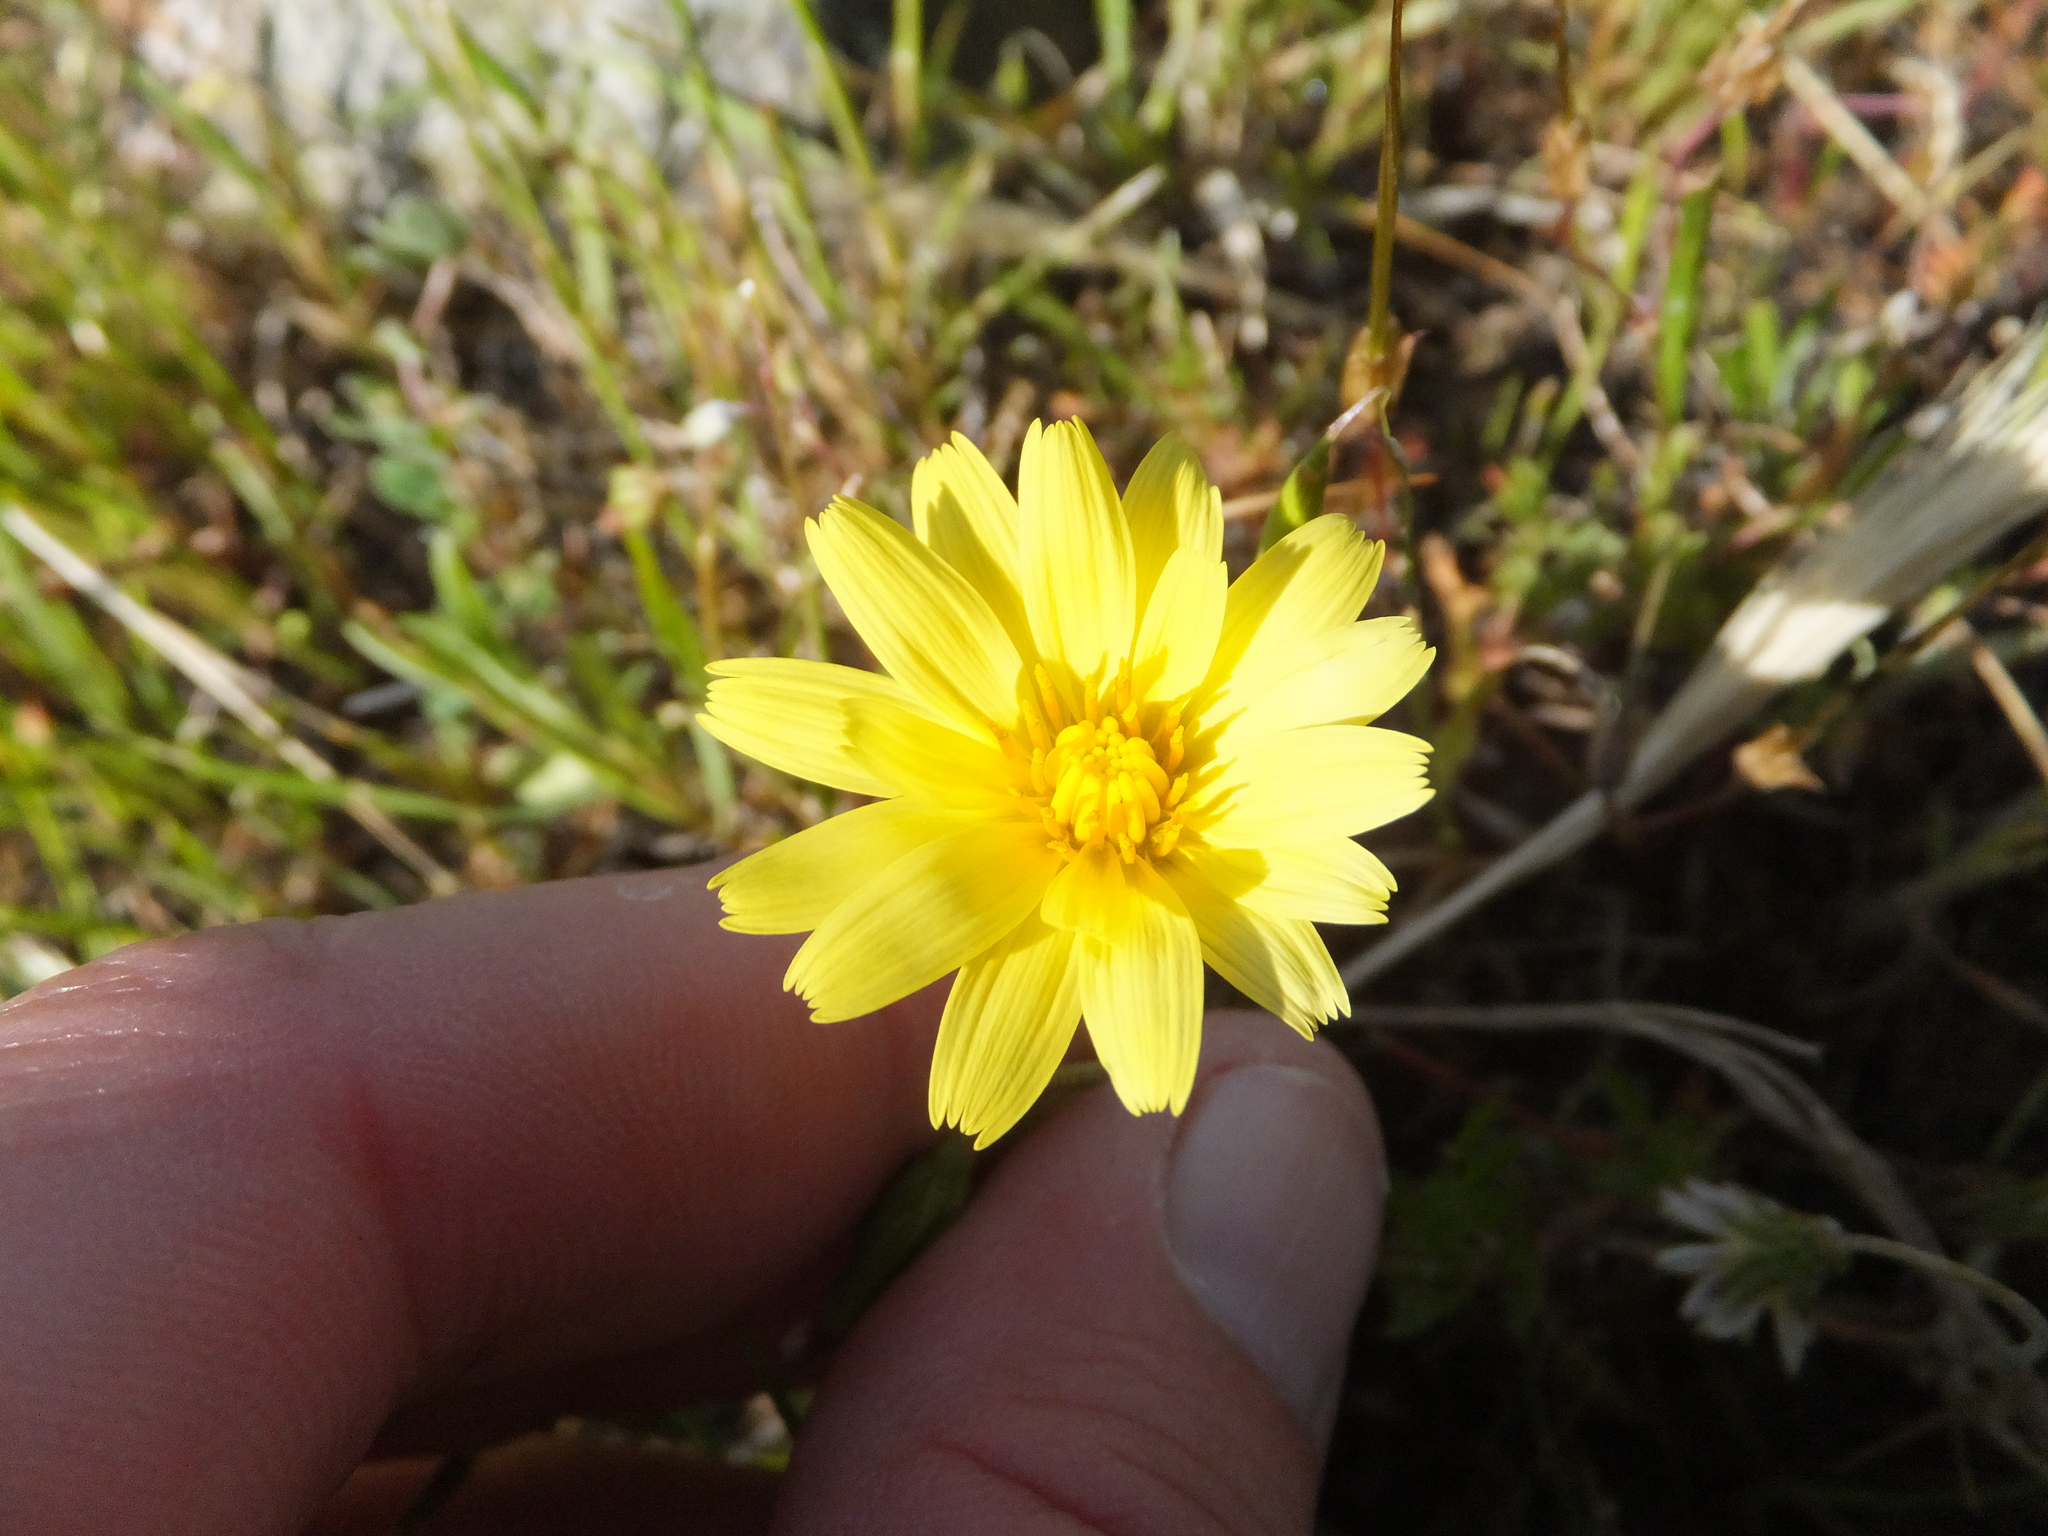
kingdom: Plantae
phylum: Tracheophyta
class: Magnoliopsida
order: Asterales
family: Asteraceae
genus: Agoseris
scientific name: Agoseris heterophylla
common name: Annual agoseris
